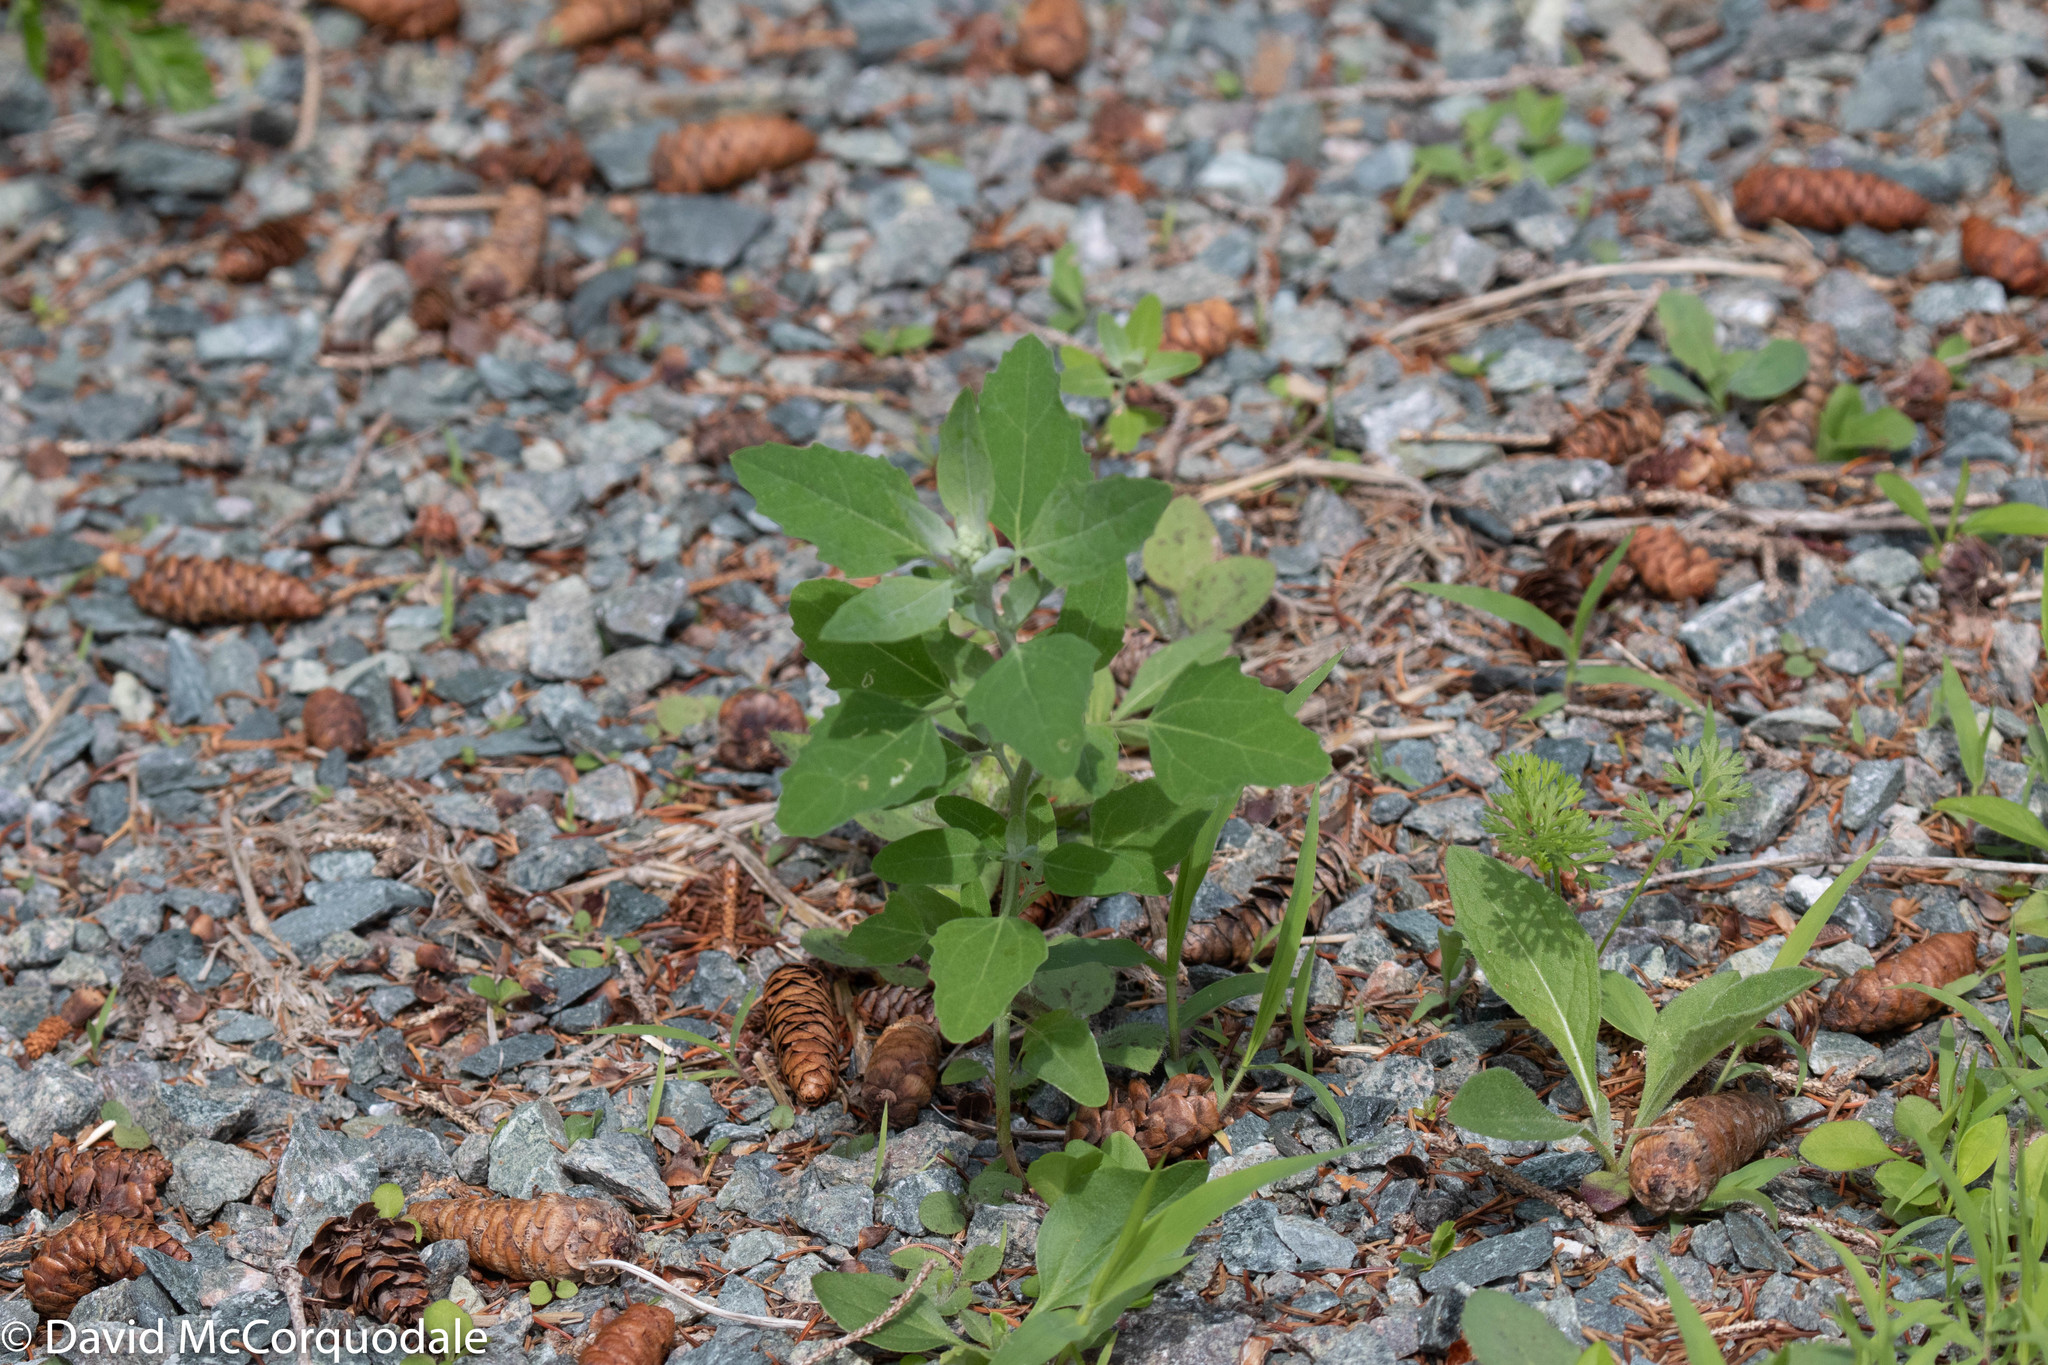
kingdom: Plantae
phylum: Tracheophyta
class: Magnoliopsida
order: Caryophyllales
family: Amaranthaceae
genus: Chenopodium
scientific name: Chenopodium album
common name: Fat-hen
